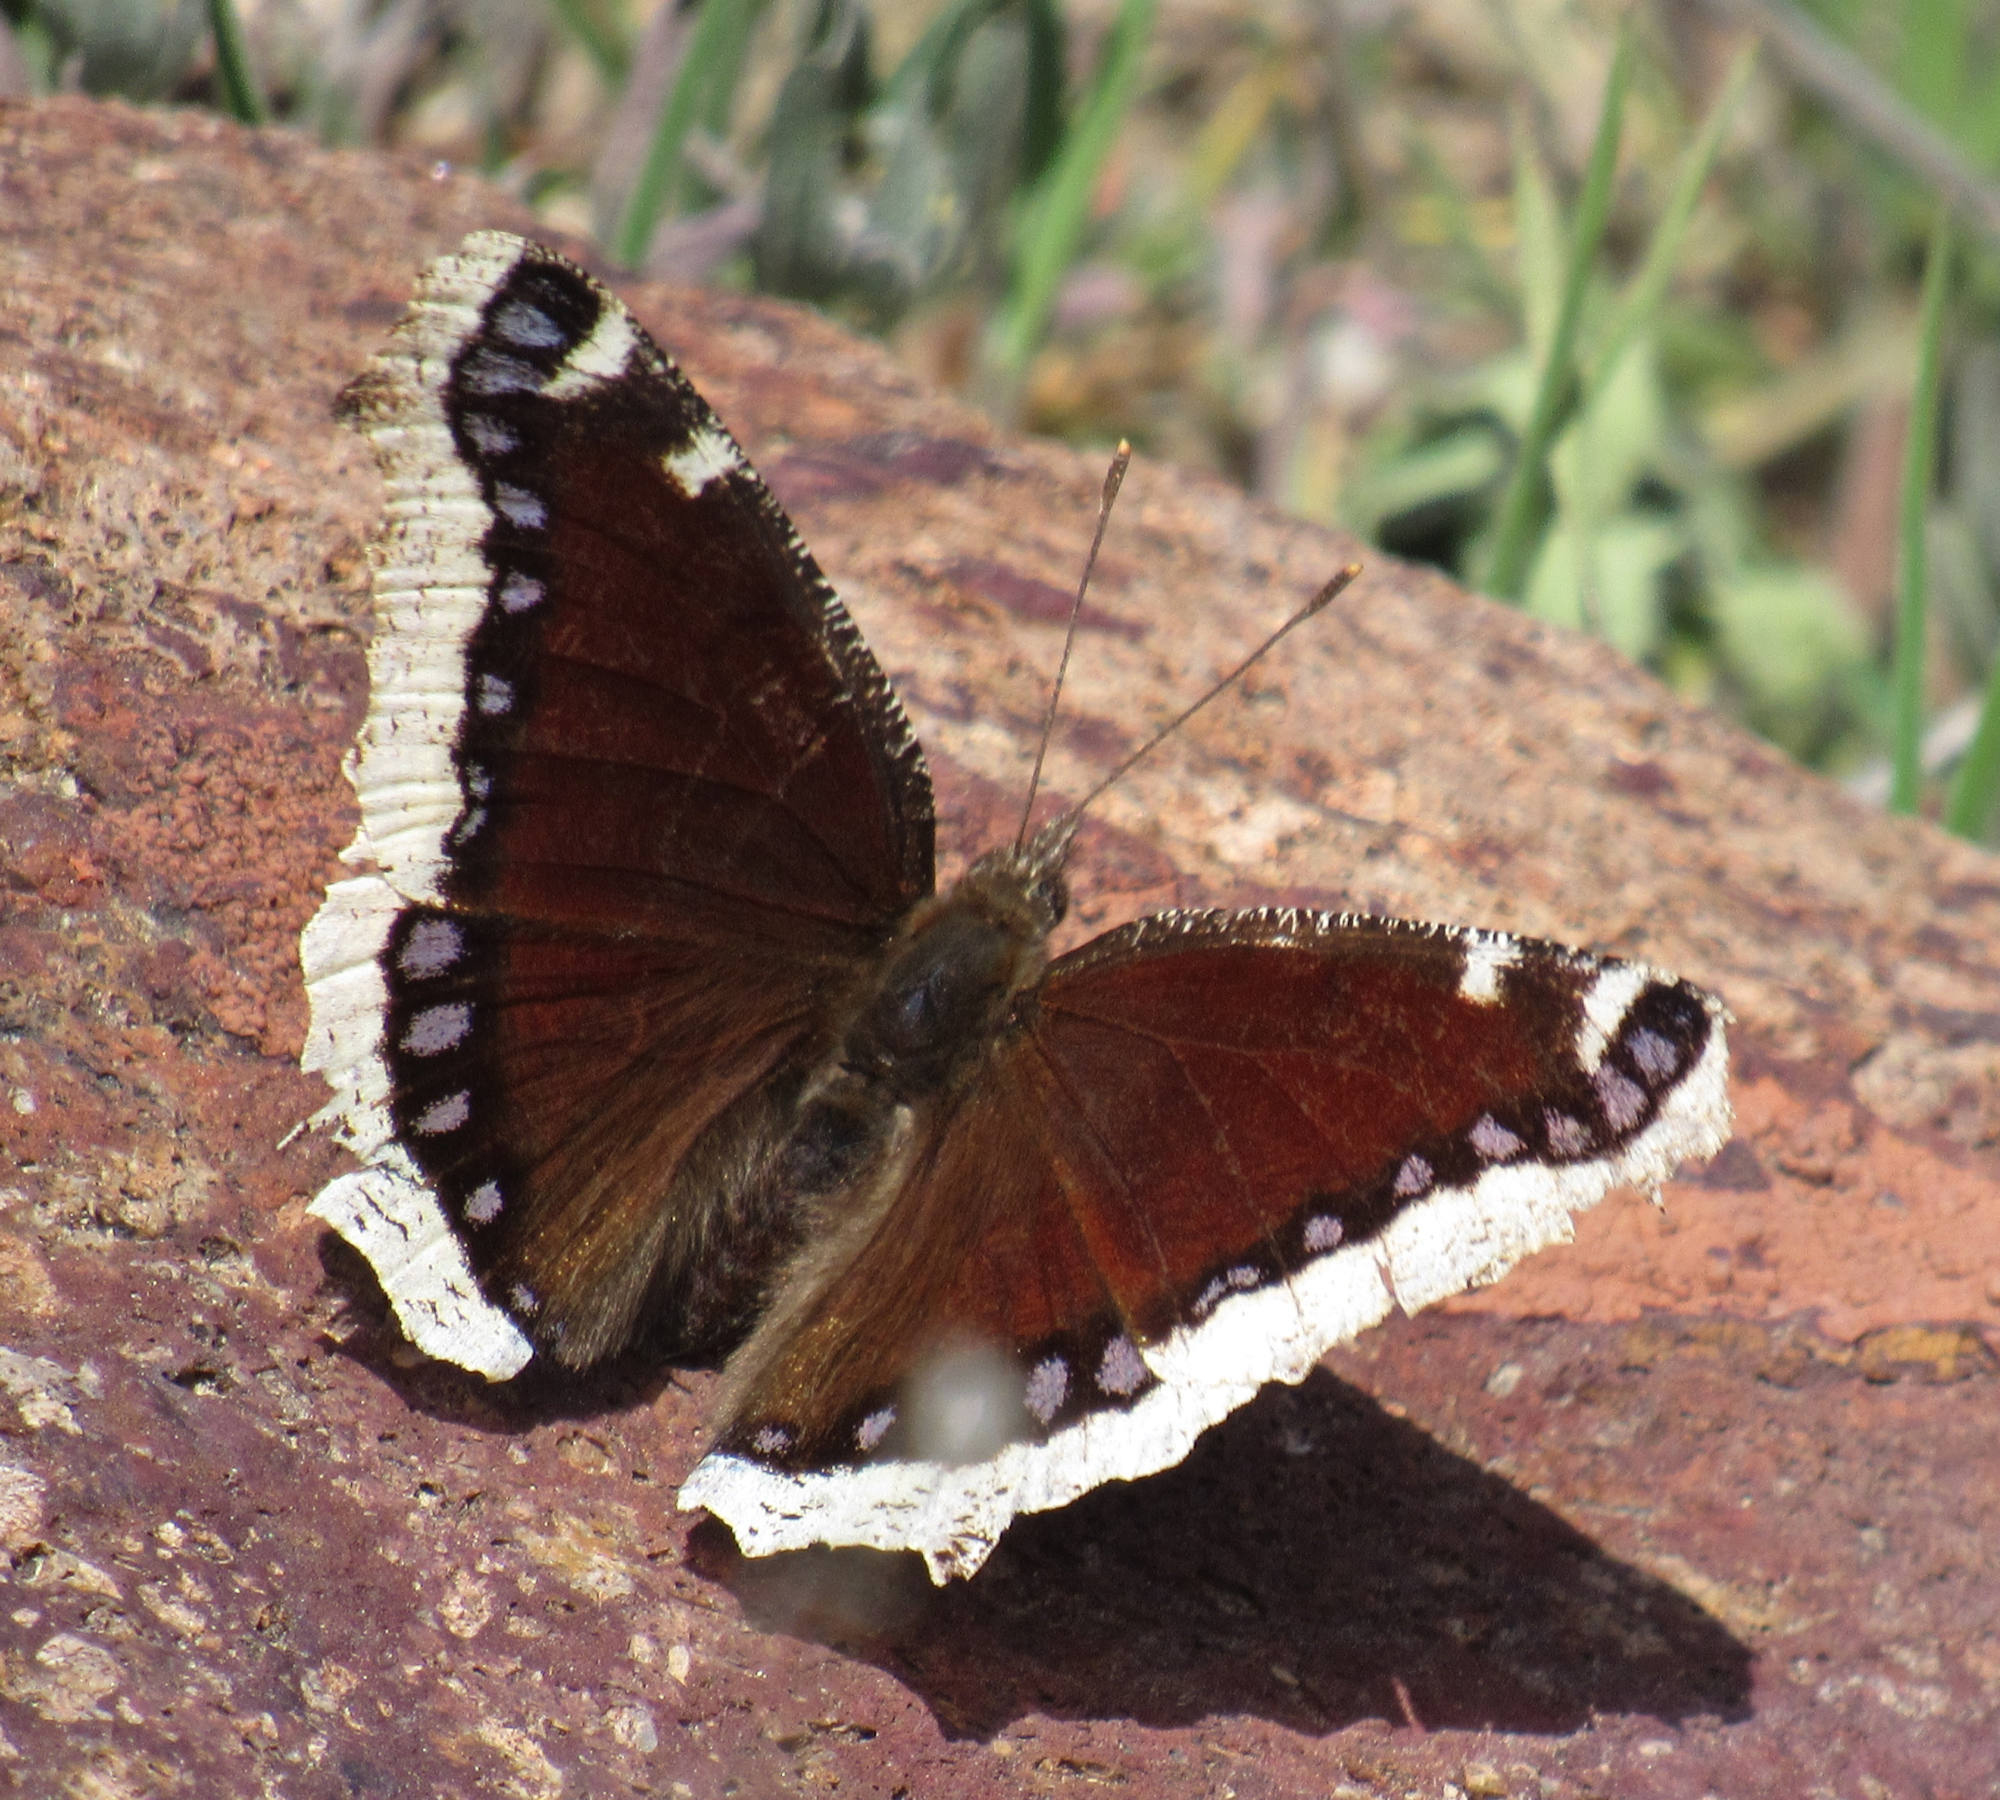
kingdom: Animalia
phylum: Arthropoda
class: Insecta
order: Lepidoptera
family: Nymphalidae
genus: Nymphalis
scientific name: Nymphalis antiopa
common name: Camberwell beauty
